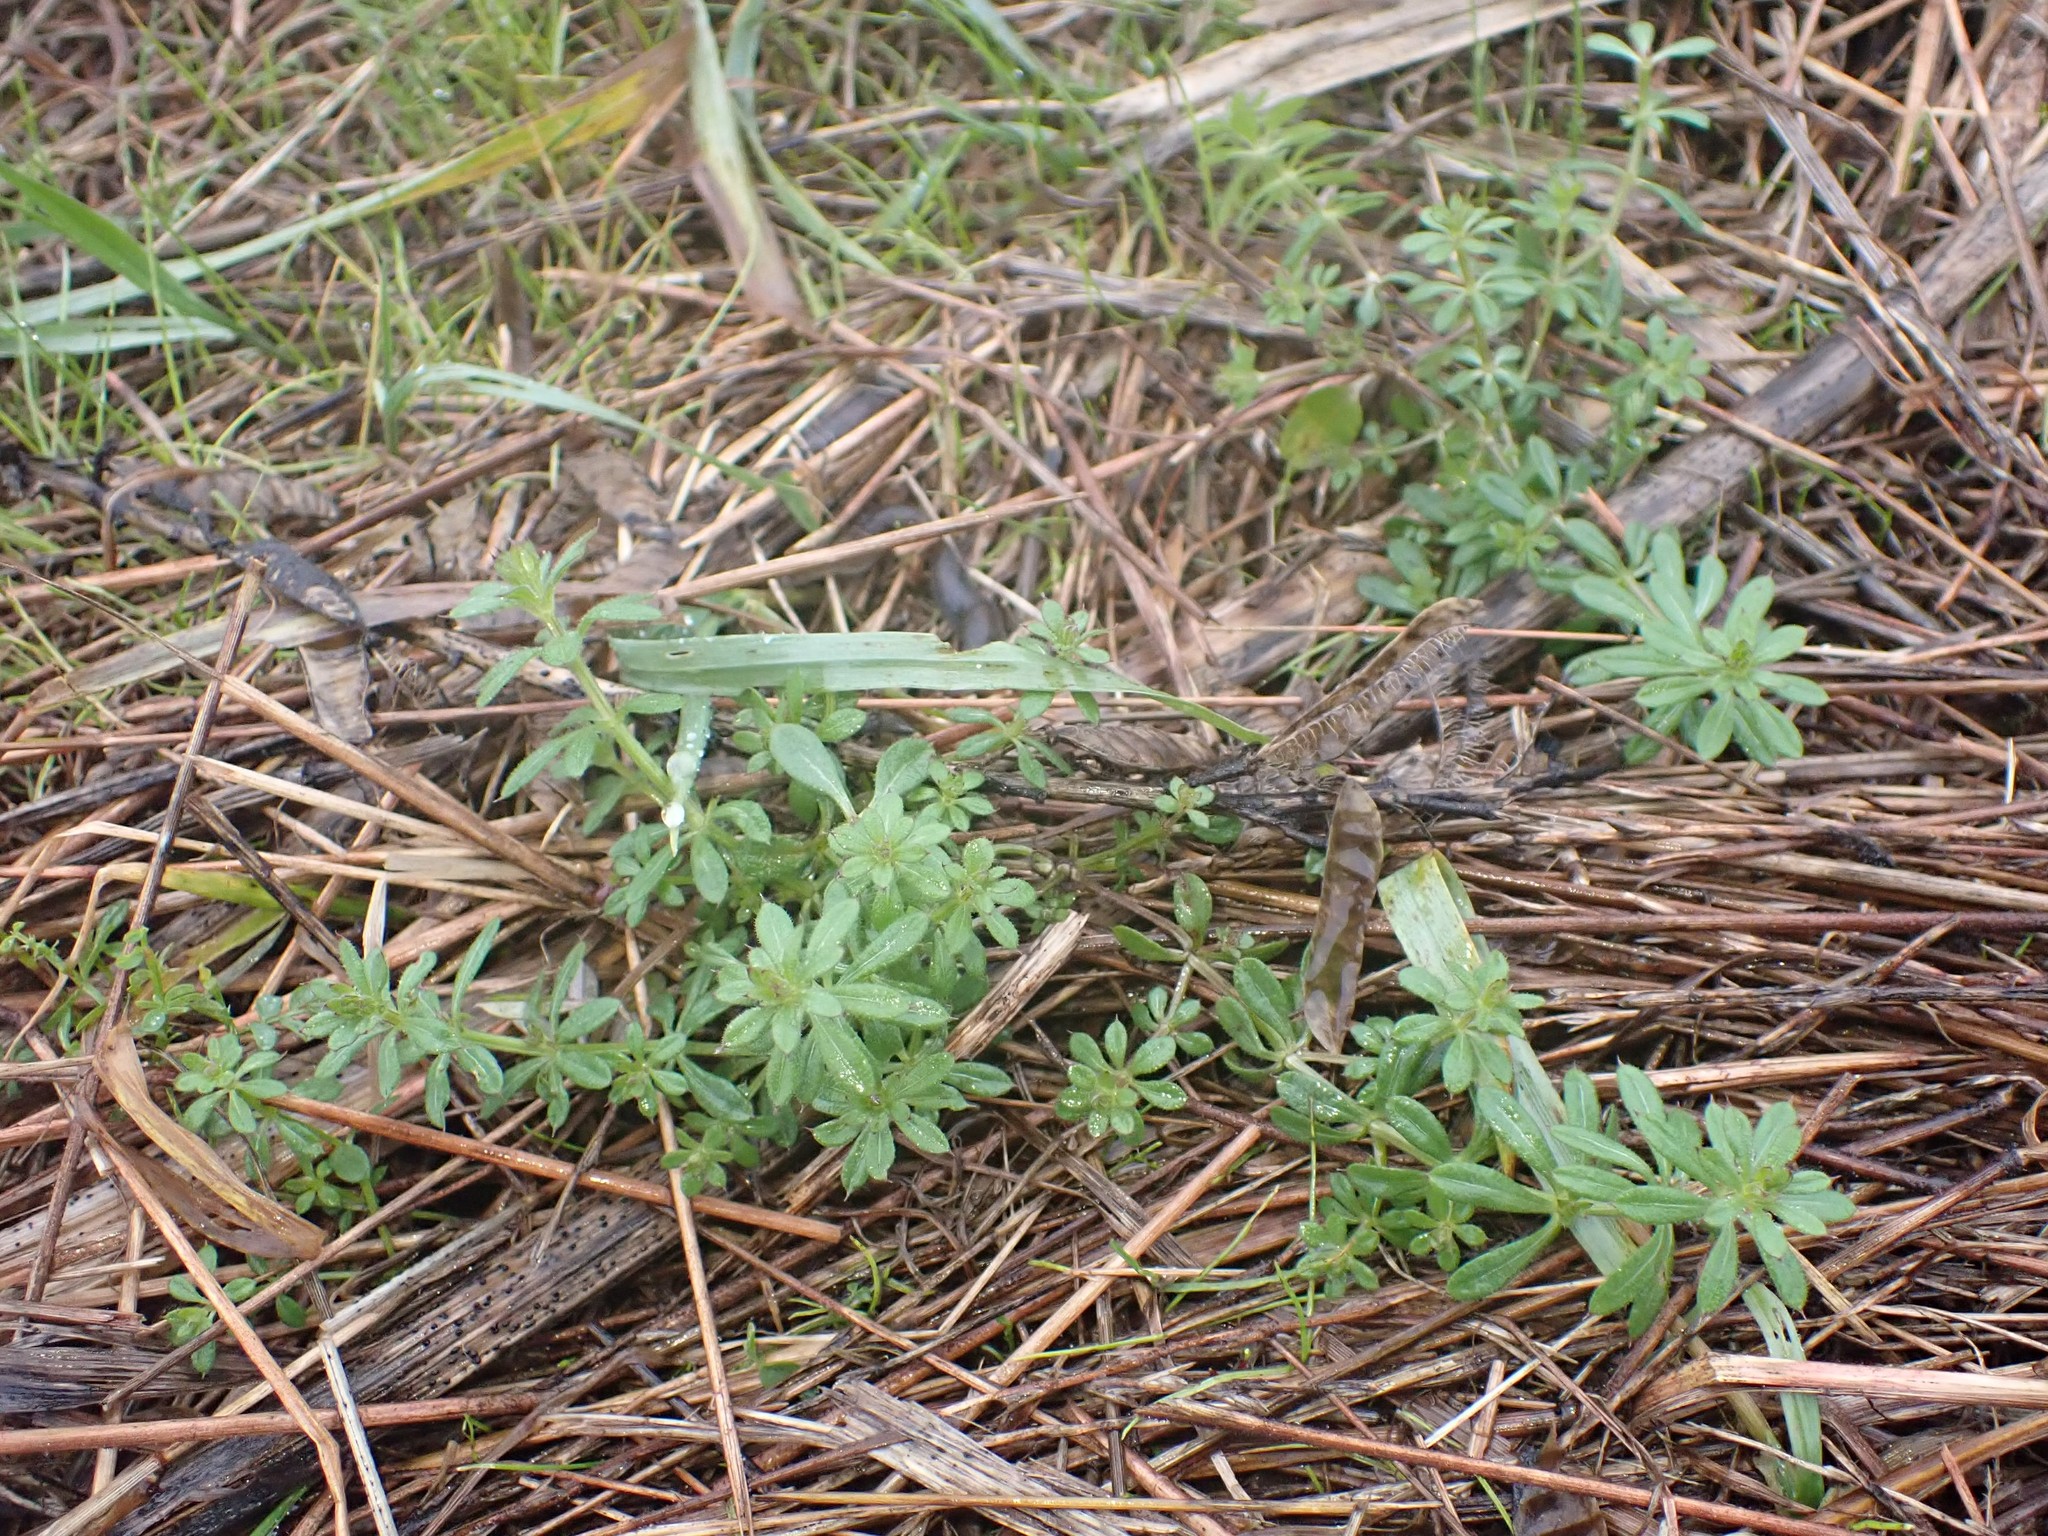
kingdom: Plantae
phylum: Tracheophyta
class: Magnoliopsida
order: Gentianales
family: Rubiaceae
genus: Galium
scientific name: Galium aparine
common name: Cleavers
